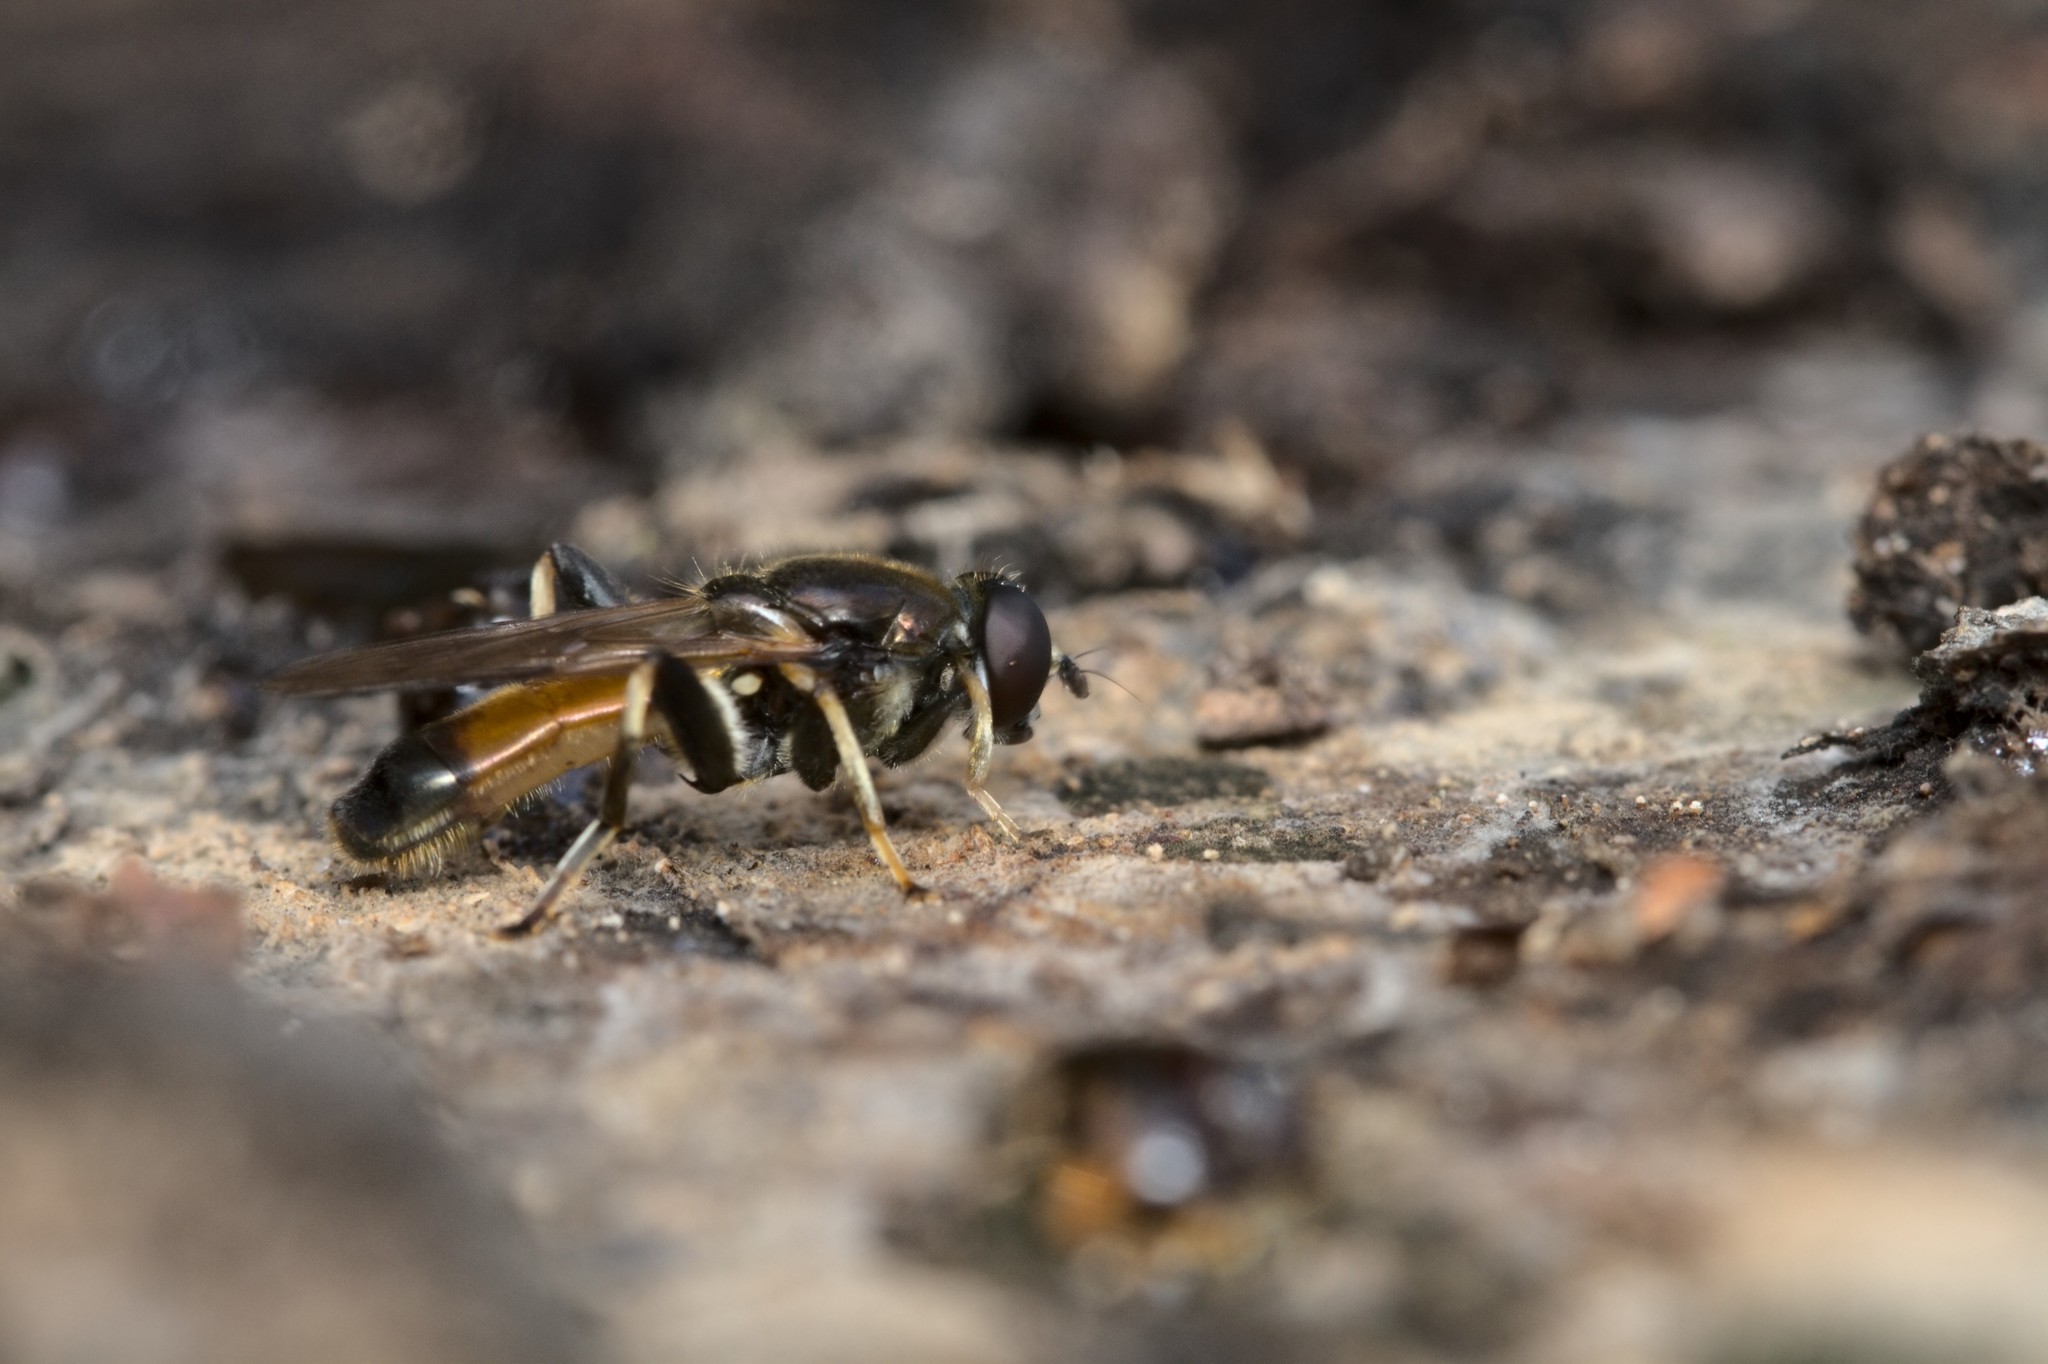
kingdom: Animalia
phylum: Arthropoda
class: Insecta
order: Diptera
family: Syrphidae
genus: Xylota
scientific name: Xylota segnis
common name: Brown-toed forest fly
